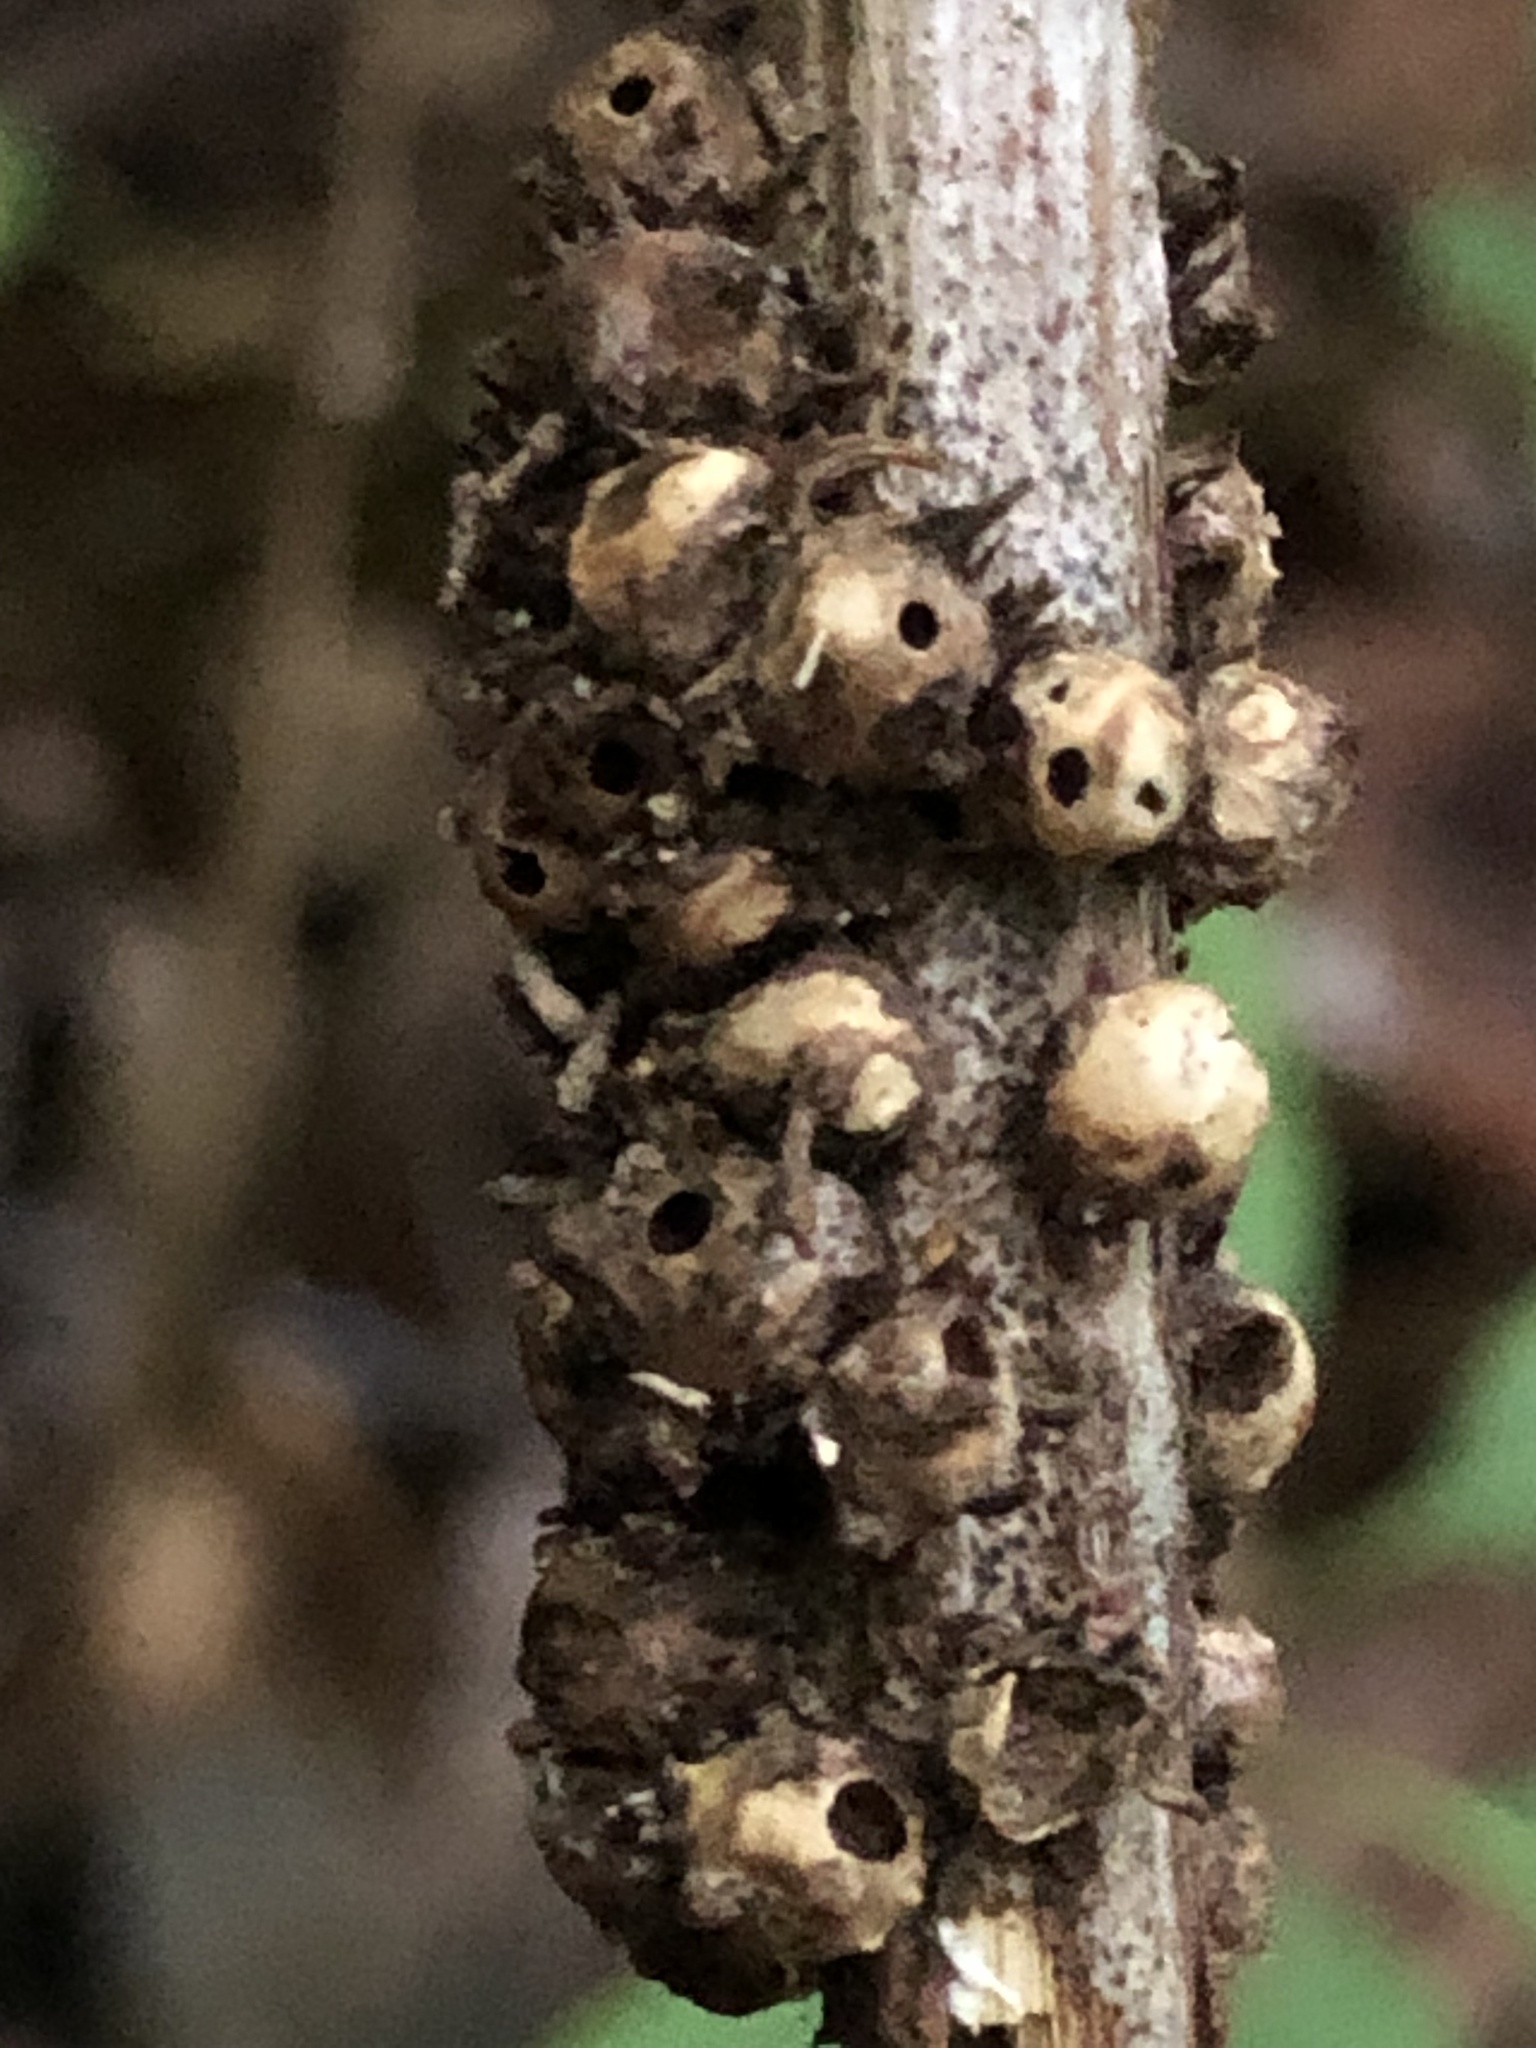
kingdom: Animalia
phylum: Arthropoda
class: Insecta
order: Hymenoptera
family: Cynipidae
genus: Diastrophus
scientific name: Diastrophus
